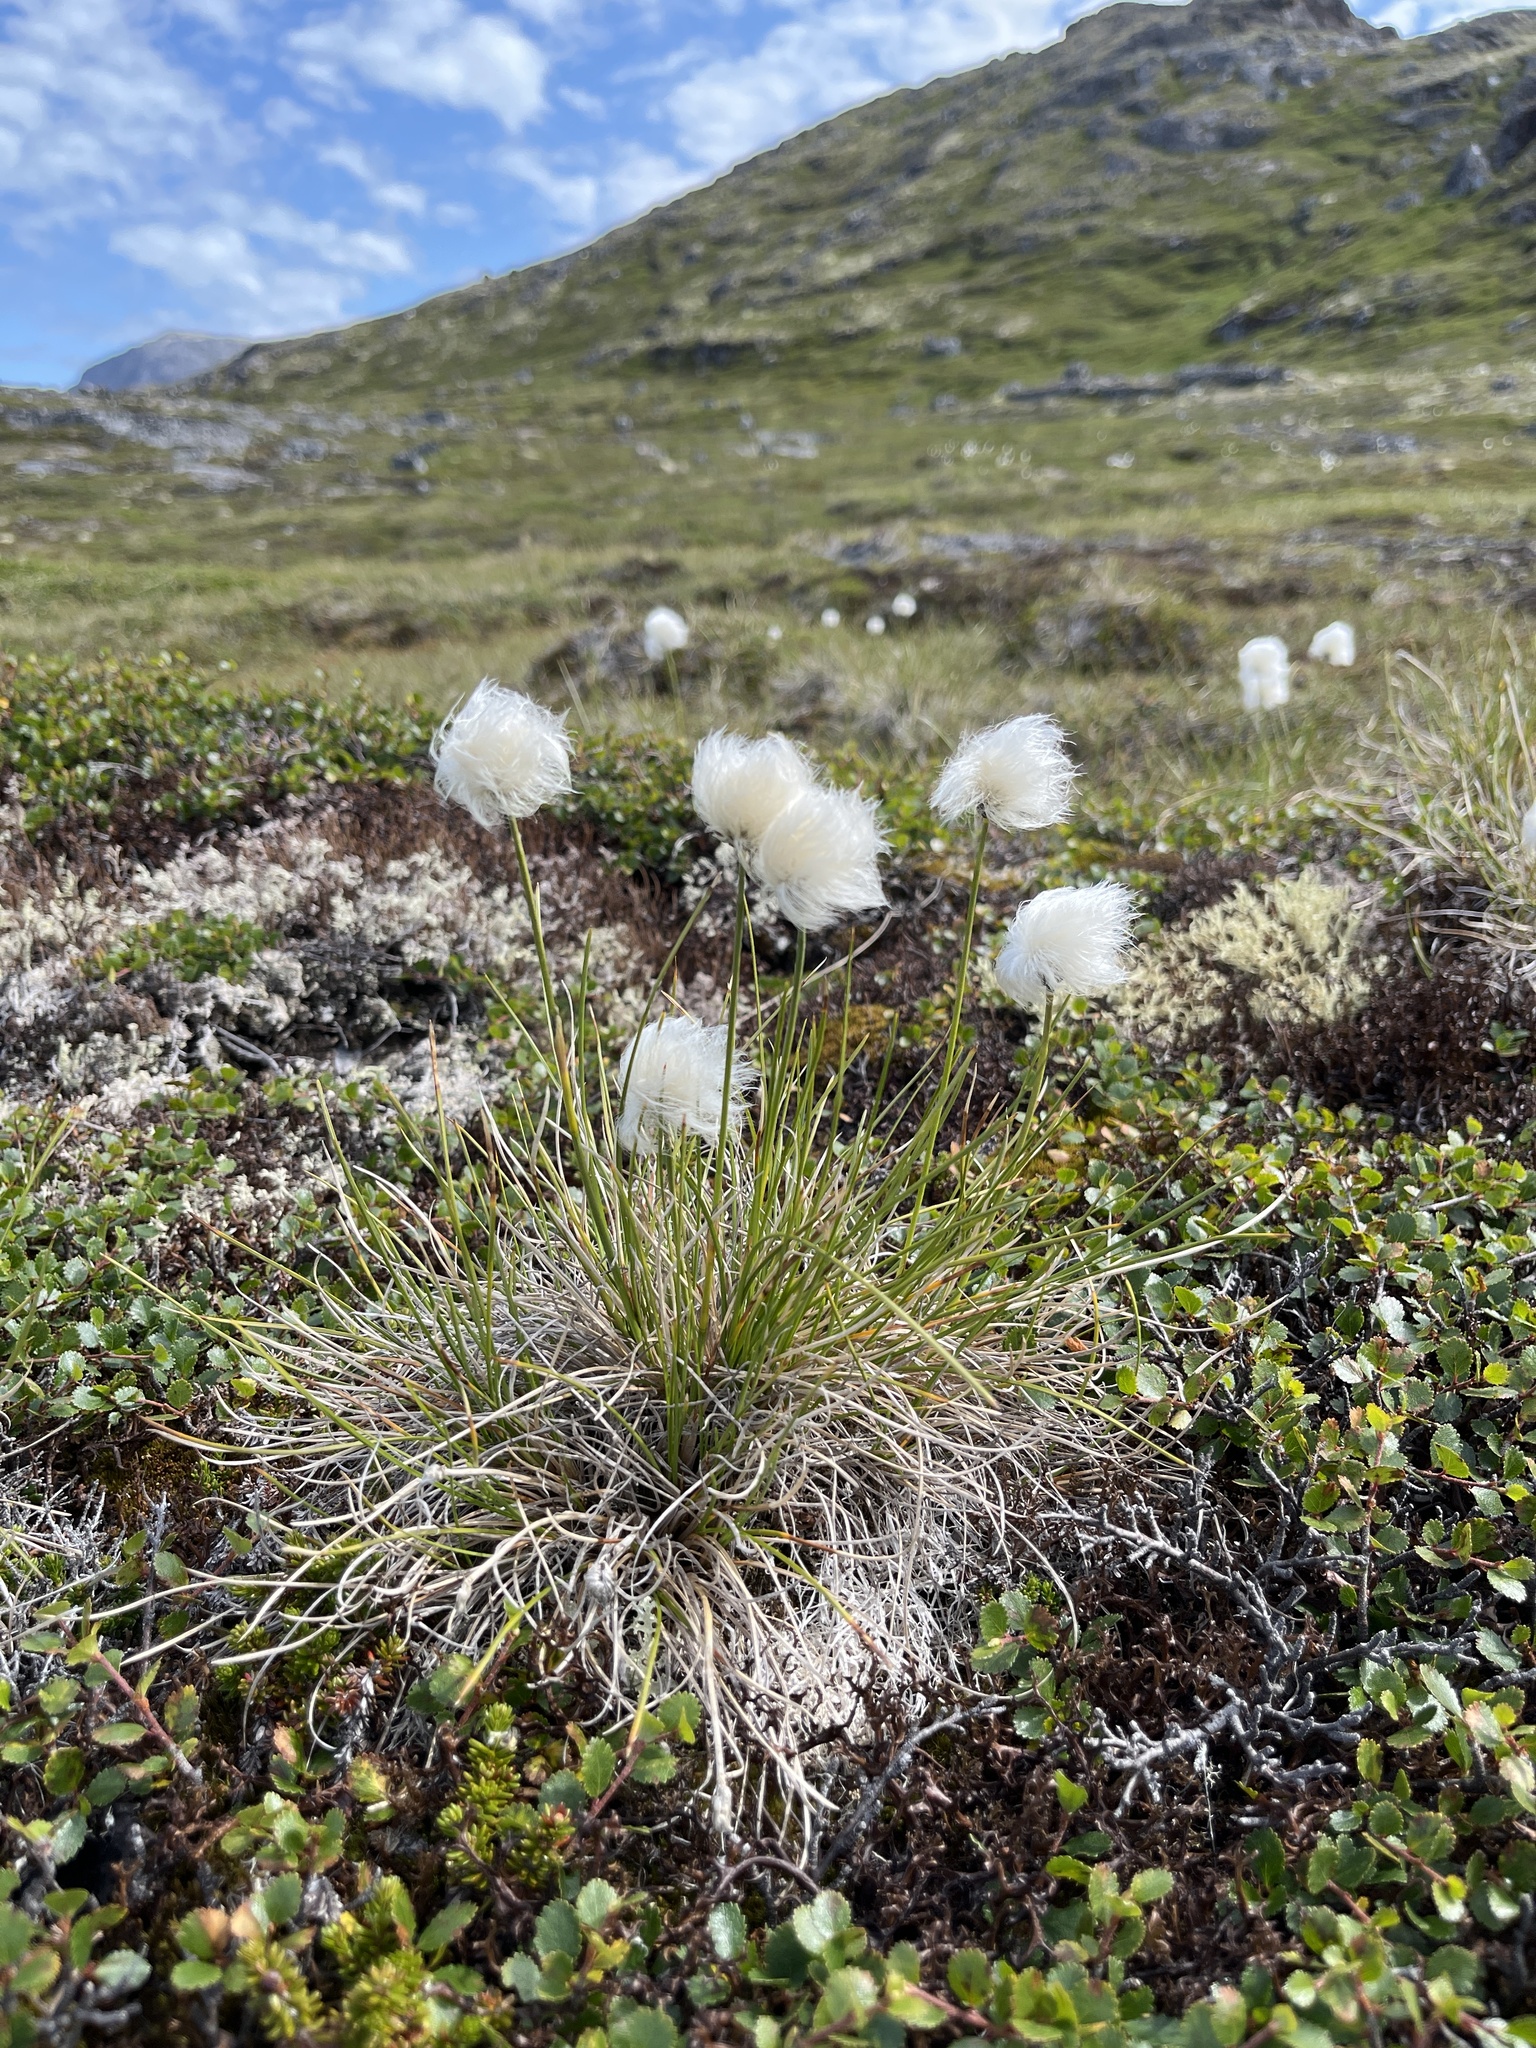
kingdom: Plantae
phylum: Tracheophyta
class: Liliopsida
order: Poales
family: Cyperaceae
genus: Eriophorum
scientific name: Eriophorum vaginatum
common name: Hare's-tail cottongrass
